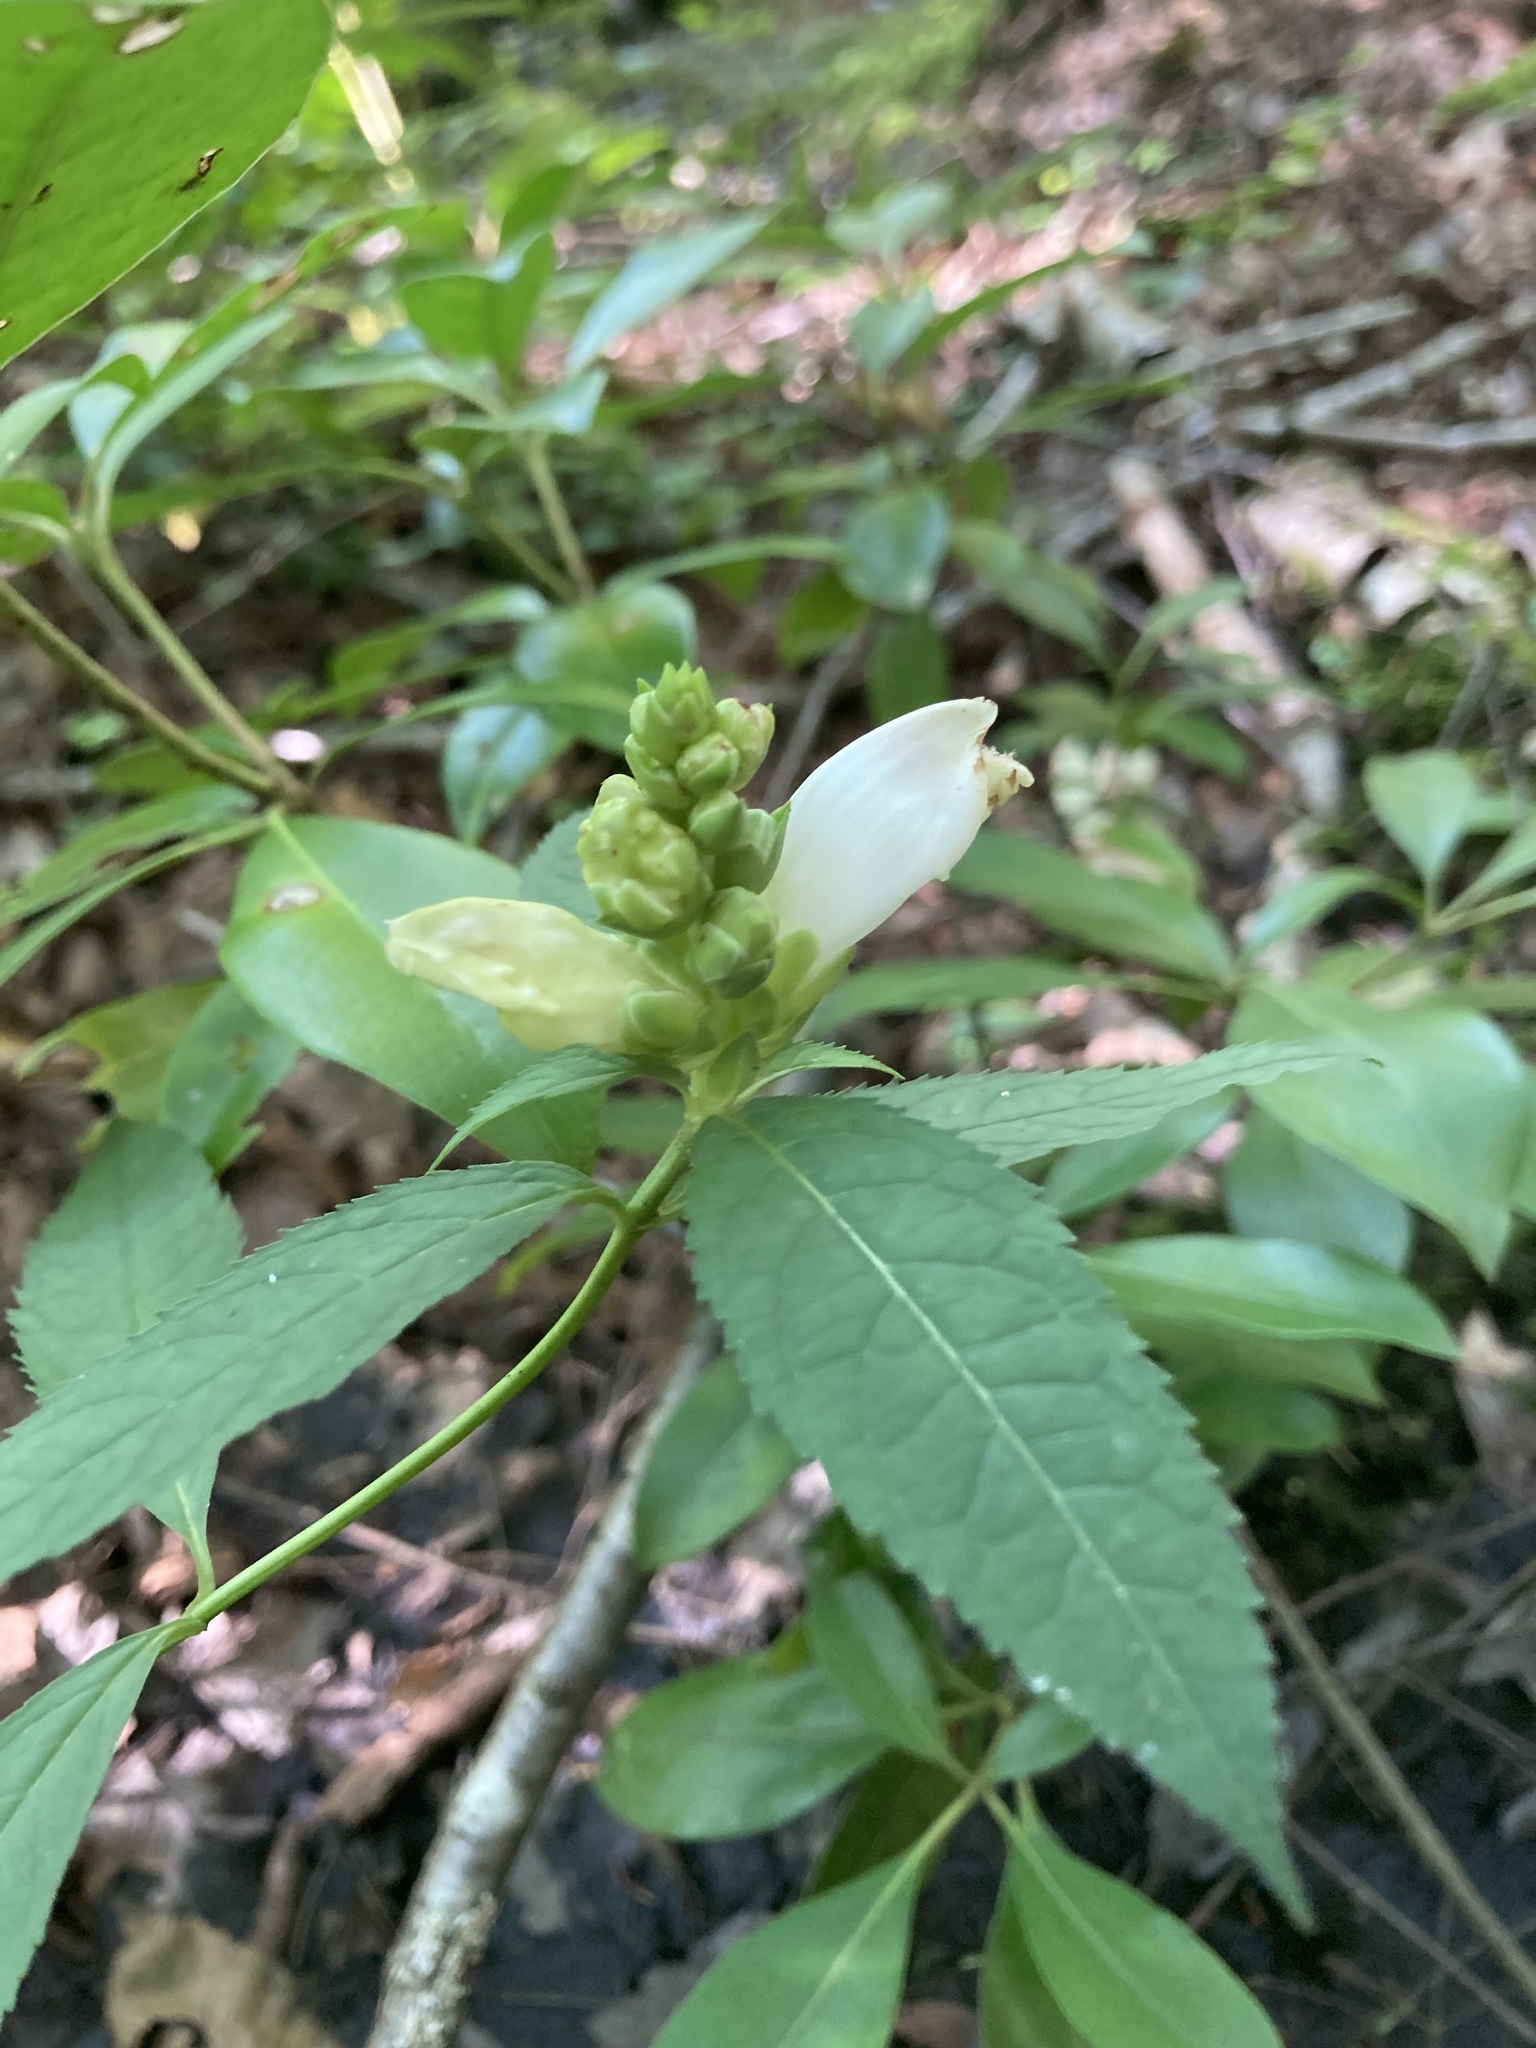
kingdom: Plantae
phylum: Tracheophyta
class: Magnoliopsida
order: Lamiales
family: Plantaginaceae
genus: Chelone
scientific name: Chelone glabra
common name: Snakehead
